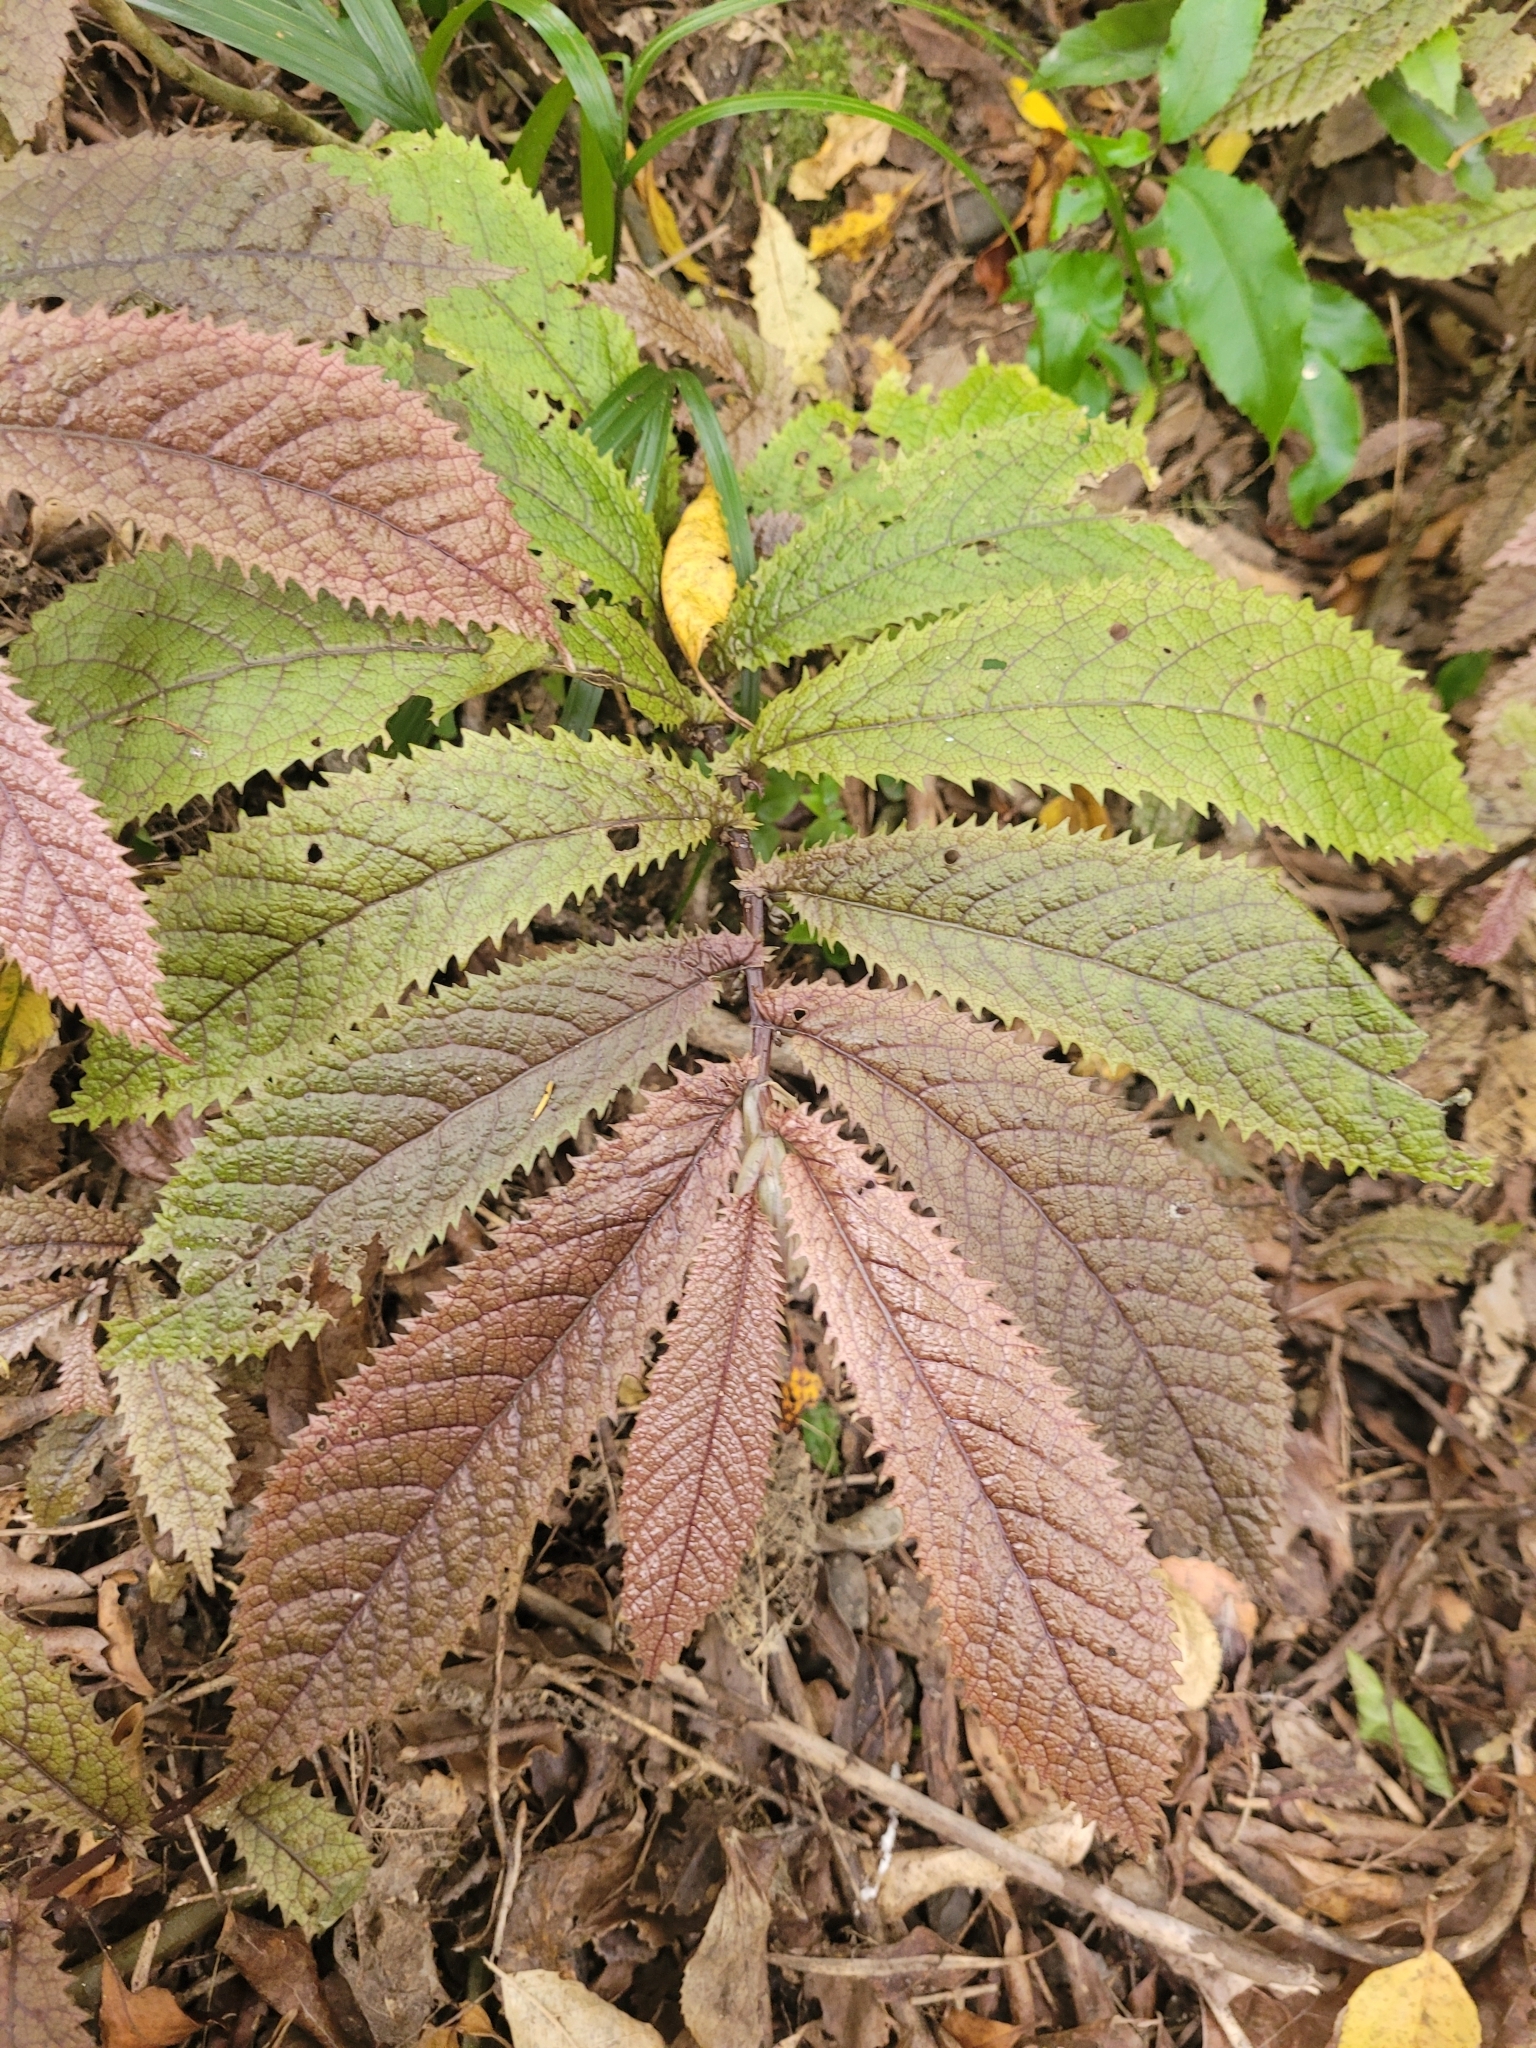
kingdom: Plantae
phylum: Tracheophyta
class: Magnoliopsida
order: Rosales
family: Urticaceae
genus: Elatostema
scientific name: Elatostema rugosum
